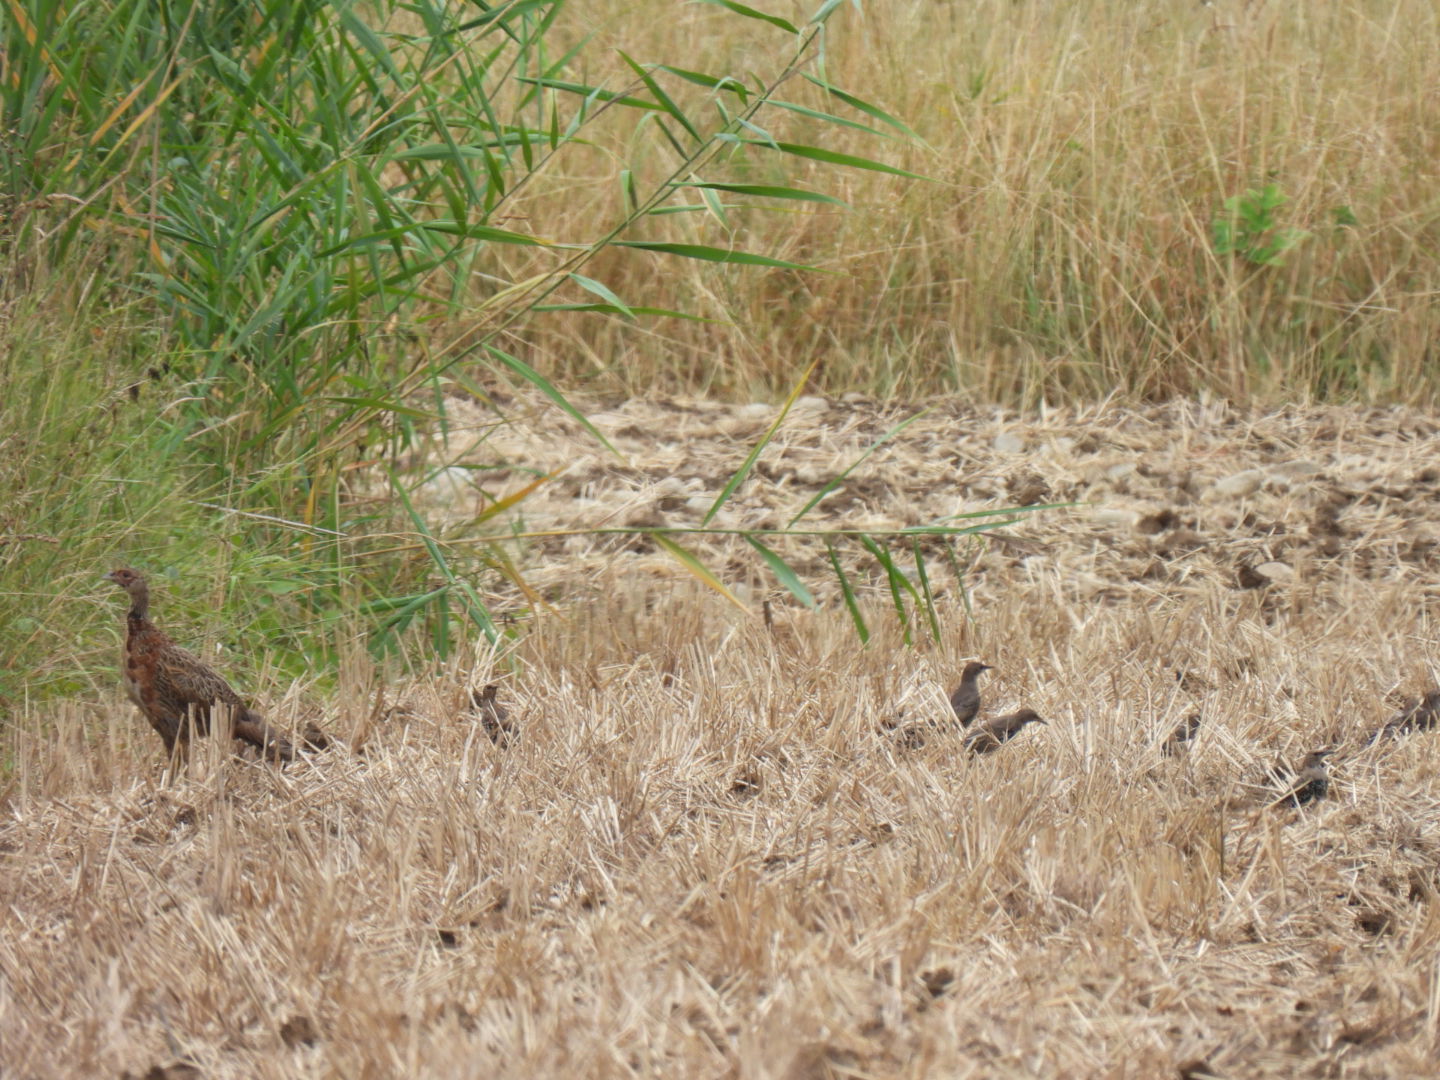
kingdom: Animalia
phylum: Chordata
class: Aves
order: Galliformes
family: Phasianidae
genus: Phasianus
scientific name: Phasianus colchicus
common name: Common pheasant
